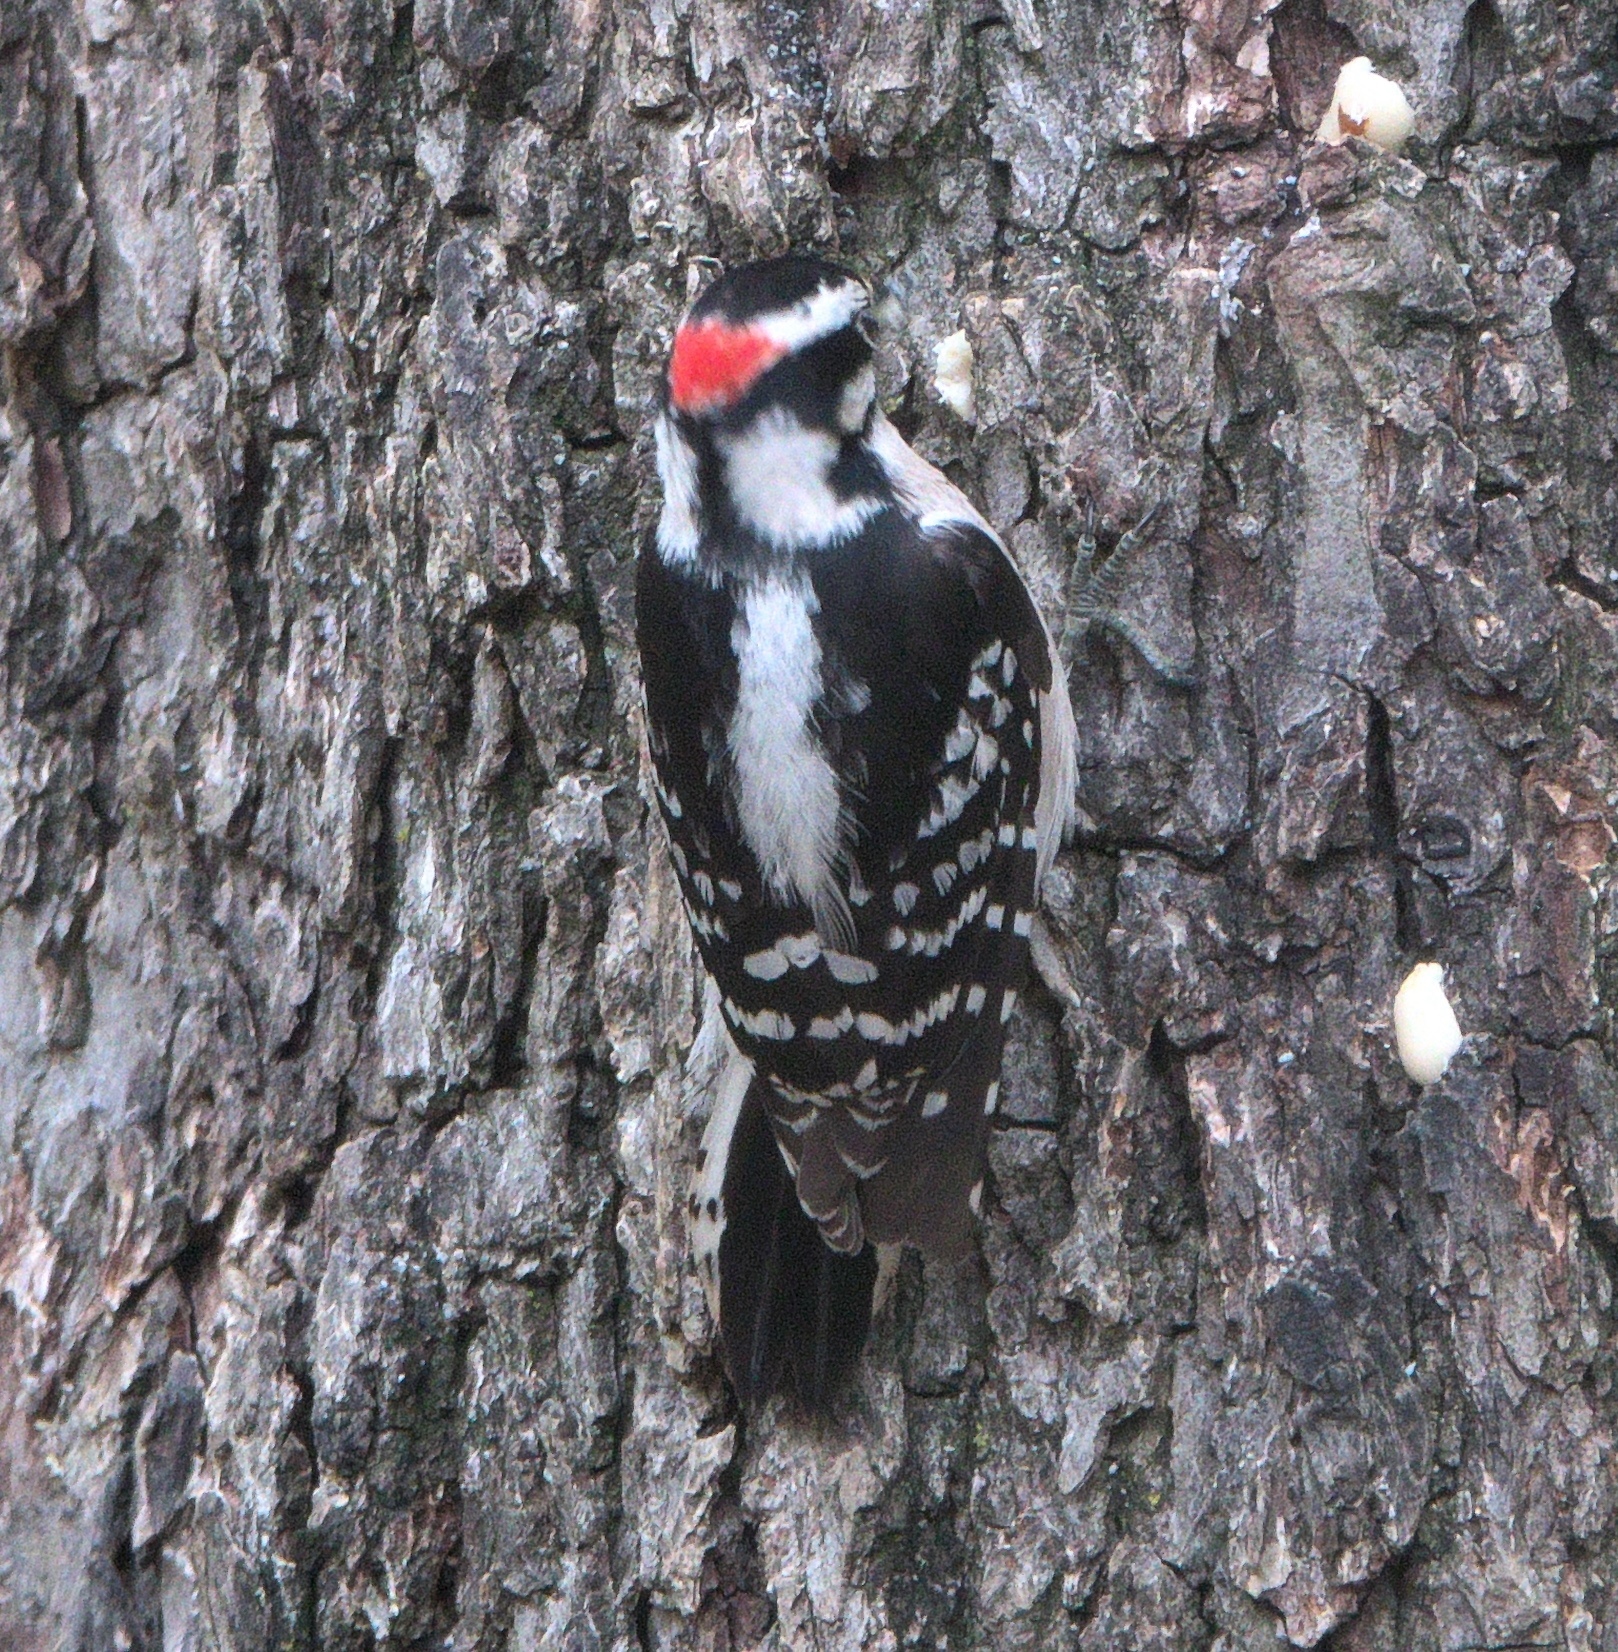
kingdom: Animalia
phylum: Chordata
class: Aves
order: Piciformes
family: Picidae
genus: Dryobates
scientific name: Dryobates pubescens
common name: Downy woodpecker
